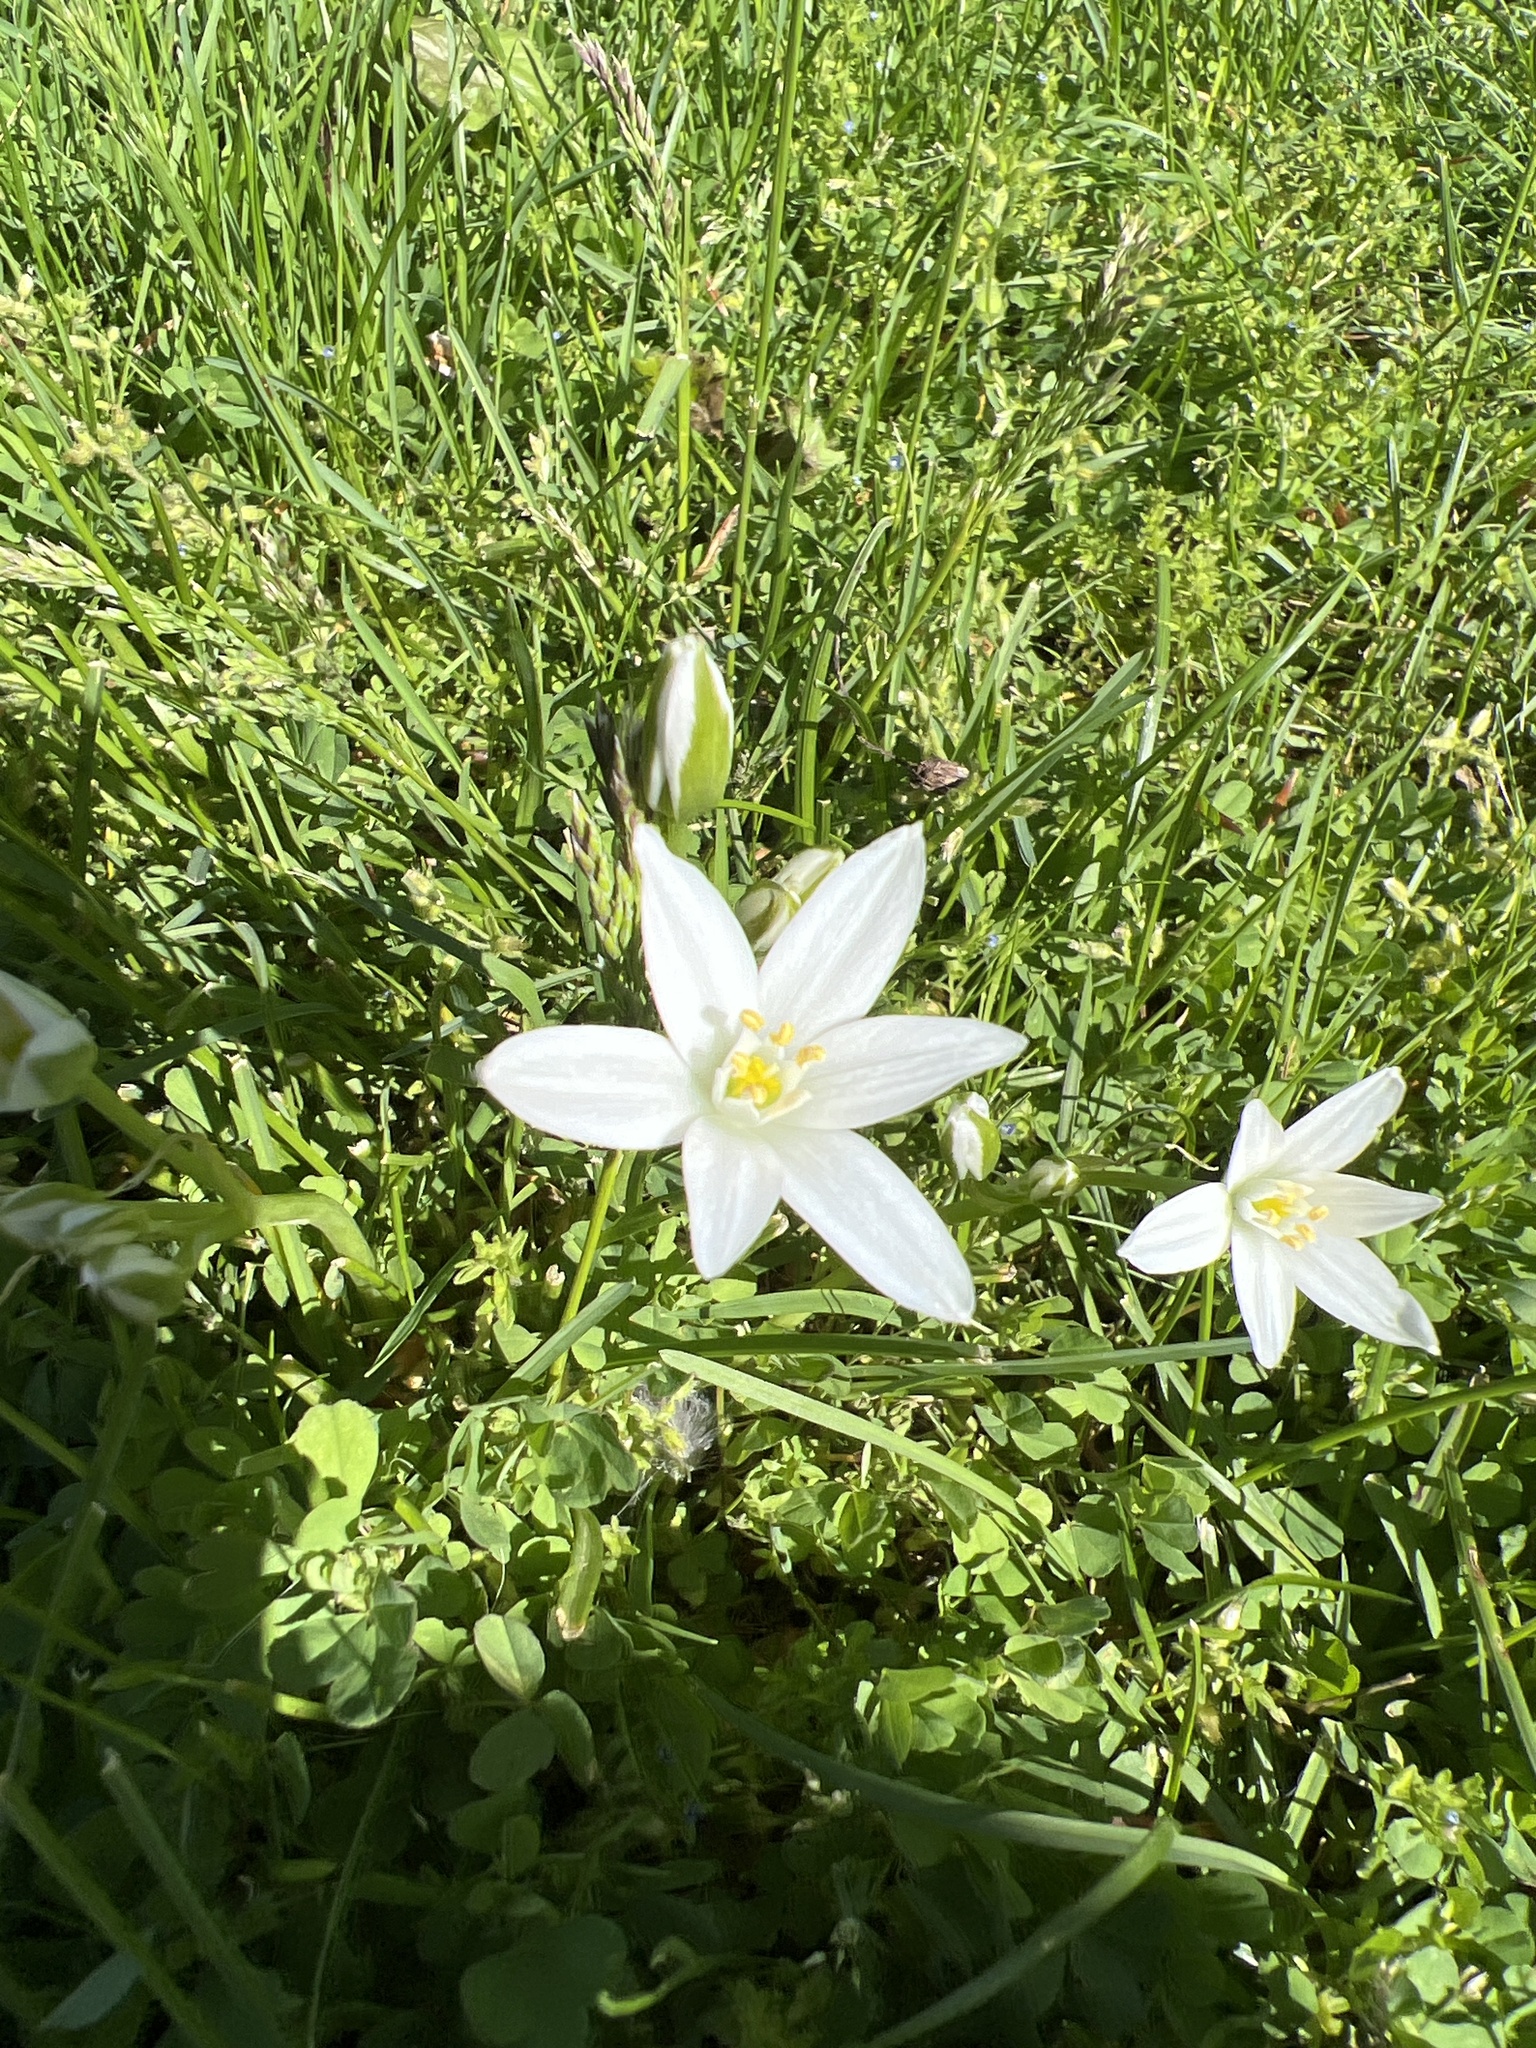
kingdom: Plantae
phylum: Tracheophyta
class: Liliopsida
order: Asparagales
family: Asparagaceae
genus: Ornithogalum
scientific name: Ornithogalum umbellatum
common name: Garden star-of-bethlehem
